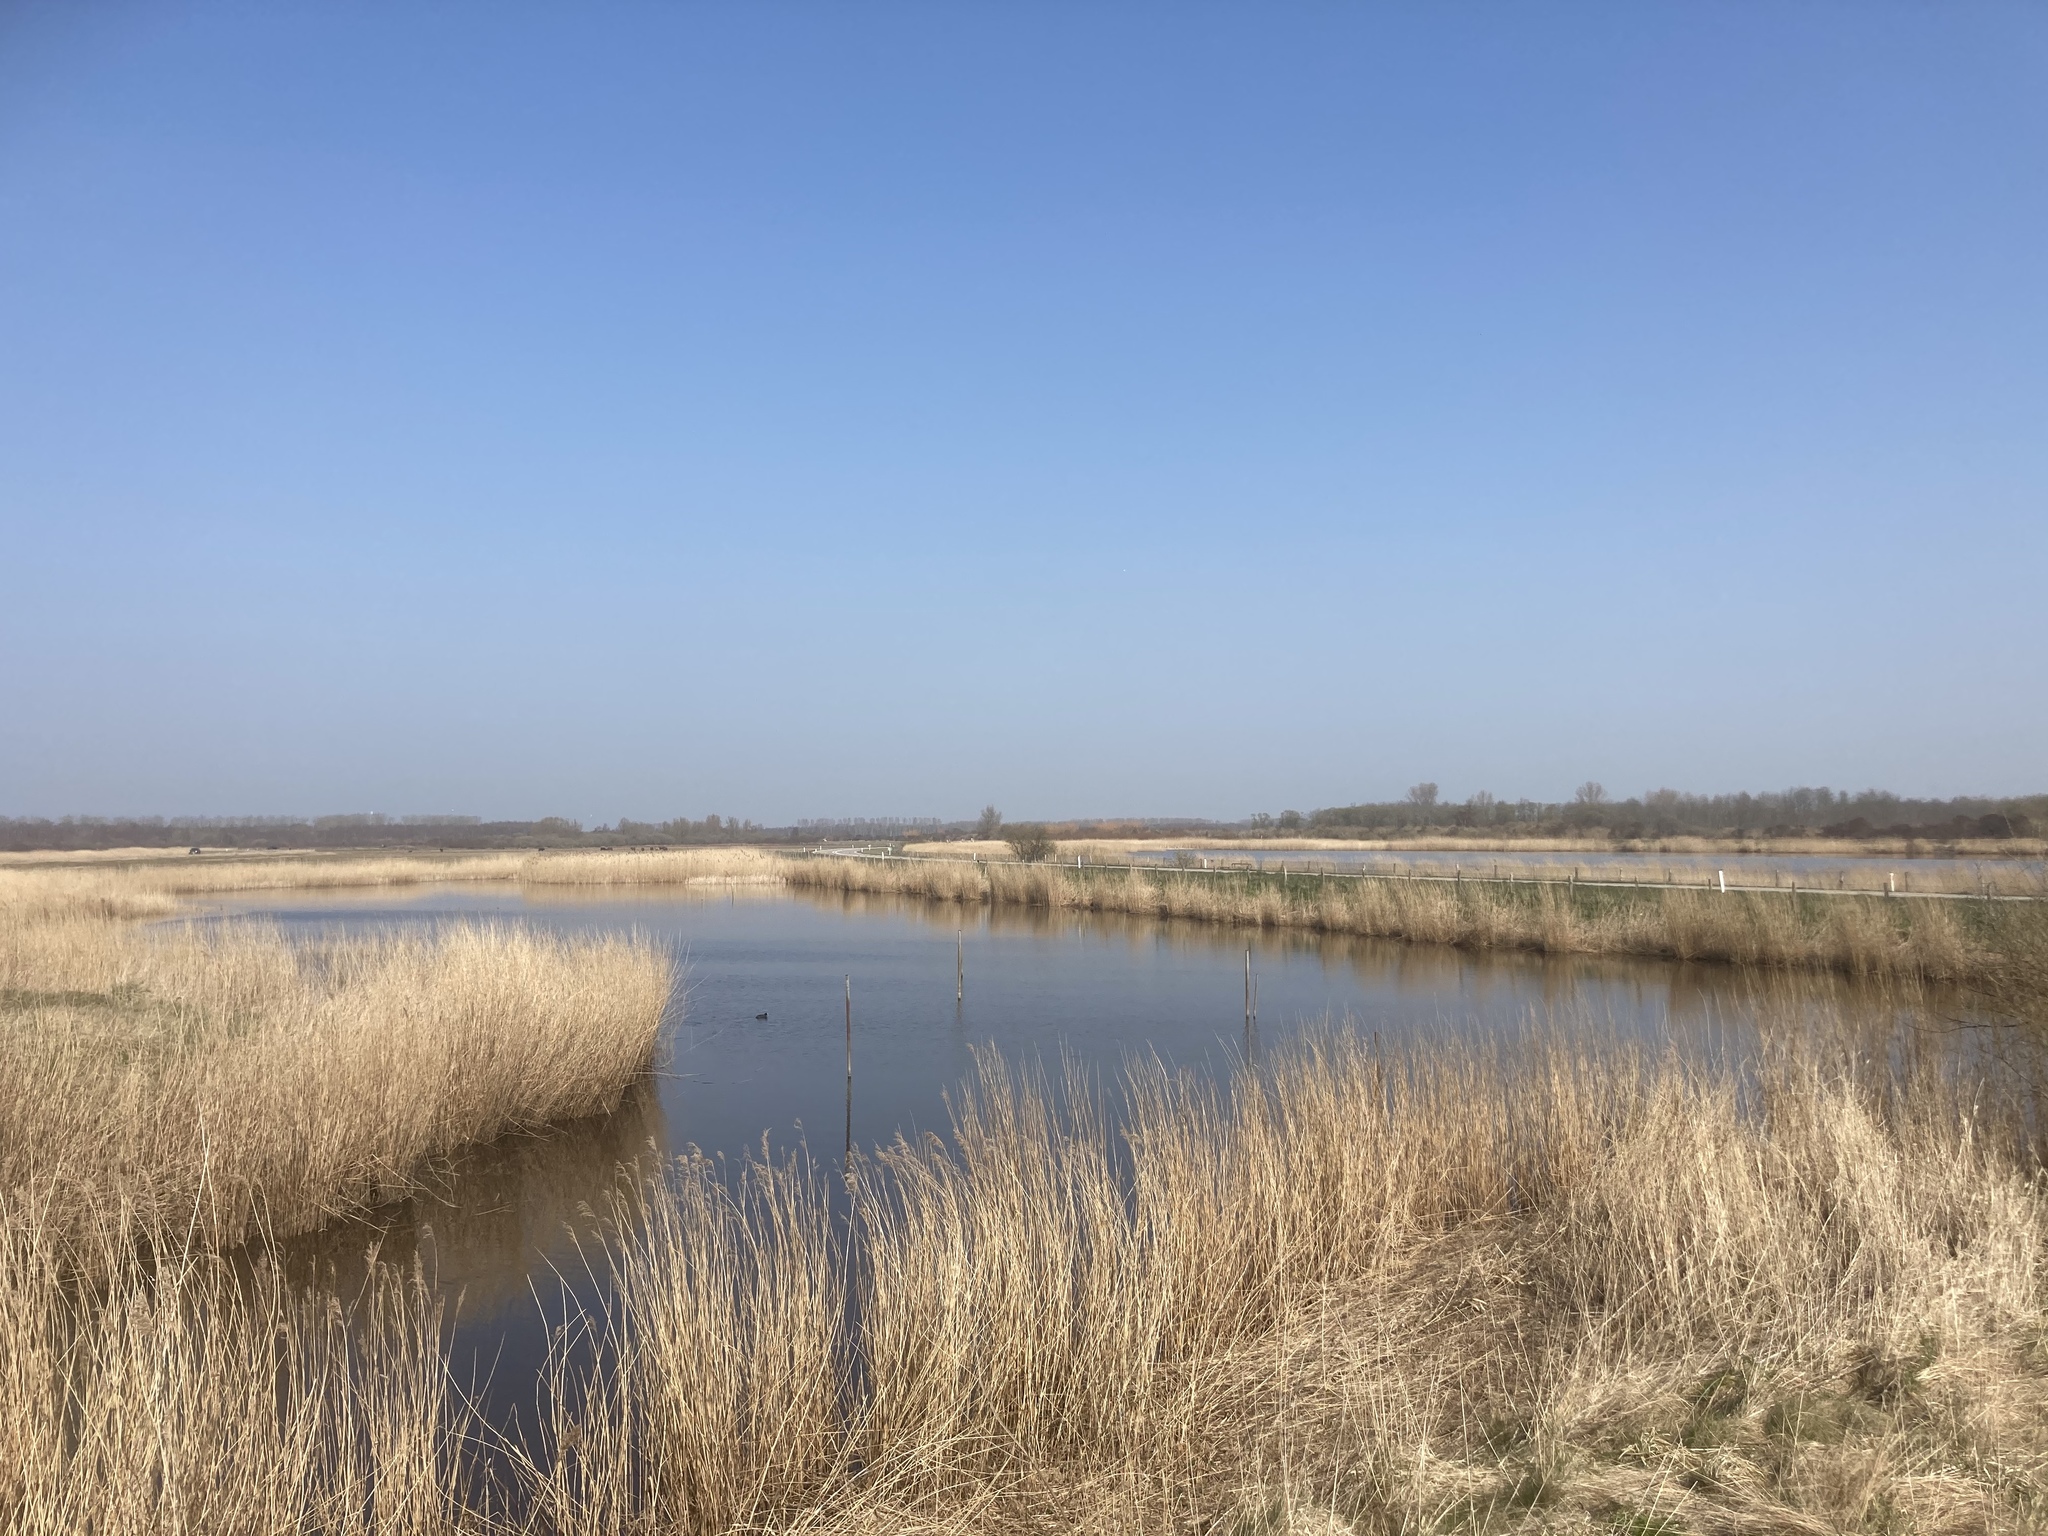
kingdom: Plantae
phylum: Tracheophyta
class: Liliopsida
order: Poales
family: Poaceae
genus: Phragmites
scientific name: Phragmites australis
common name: Common reed
